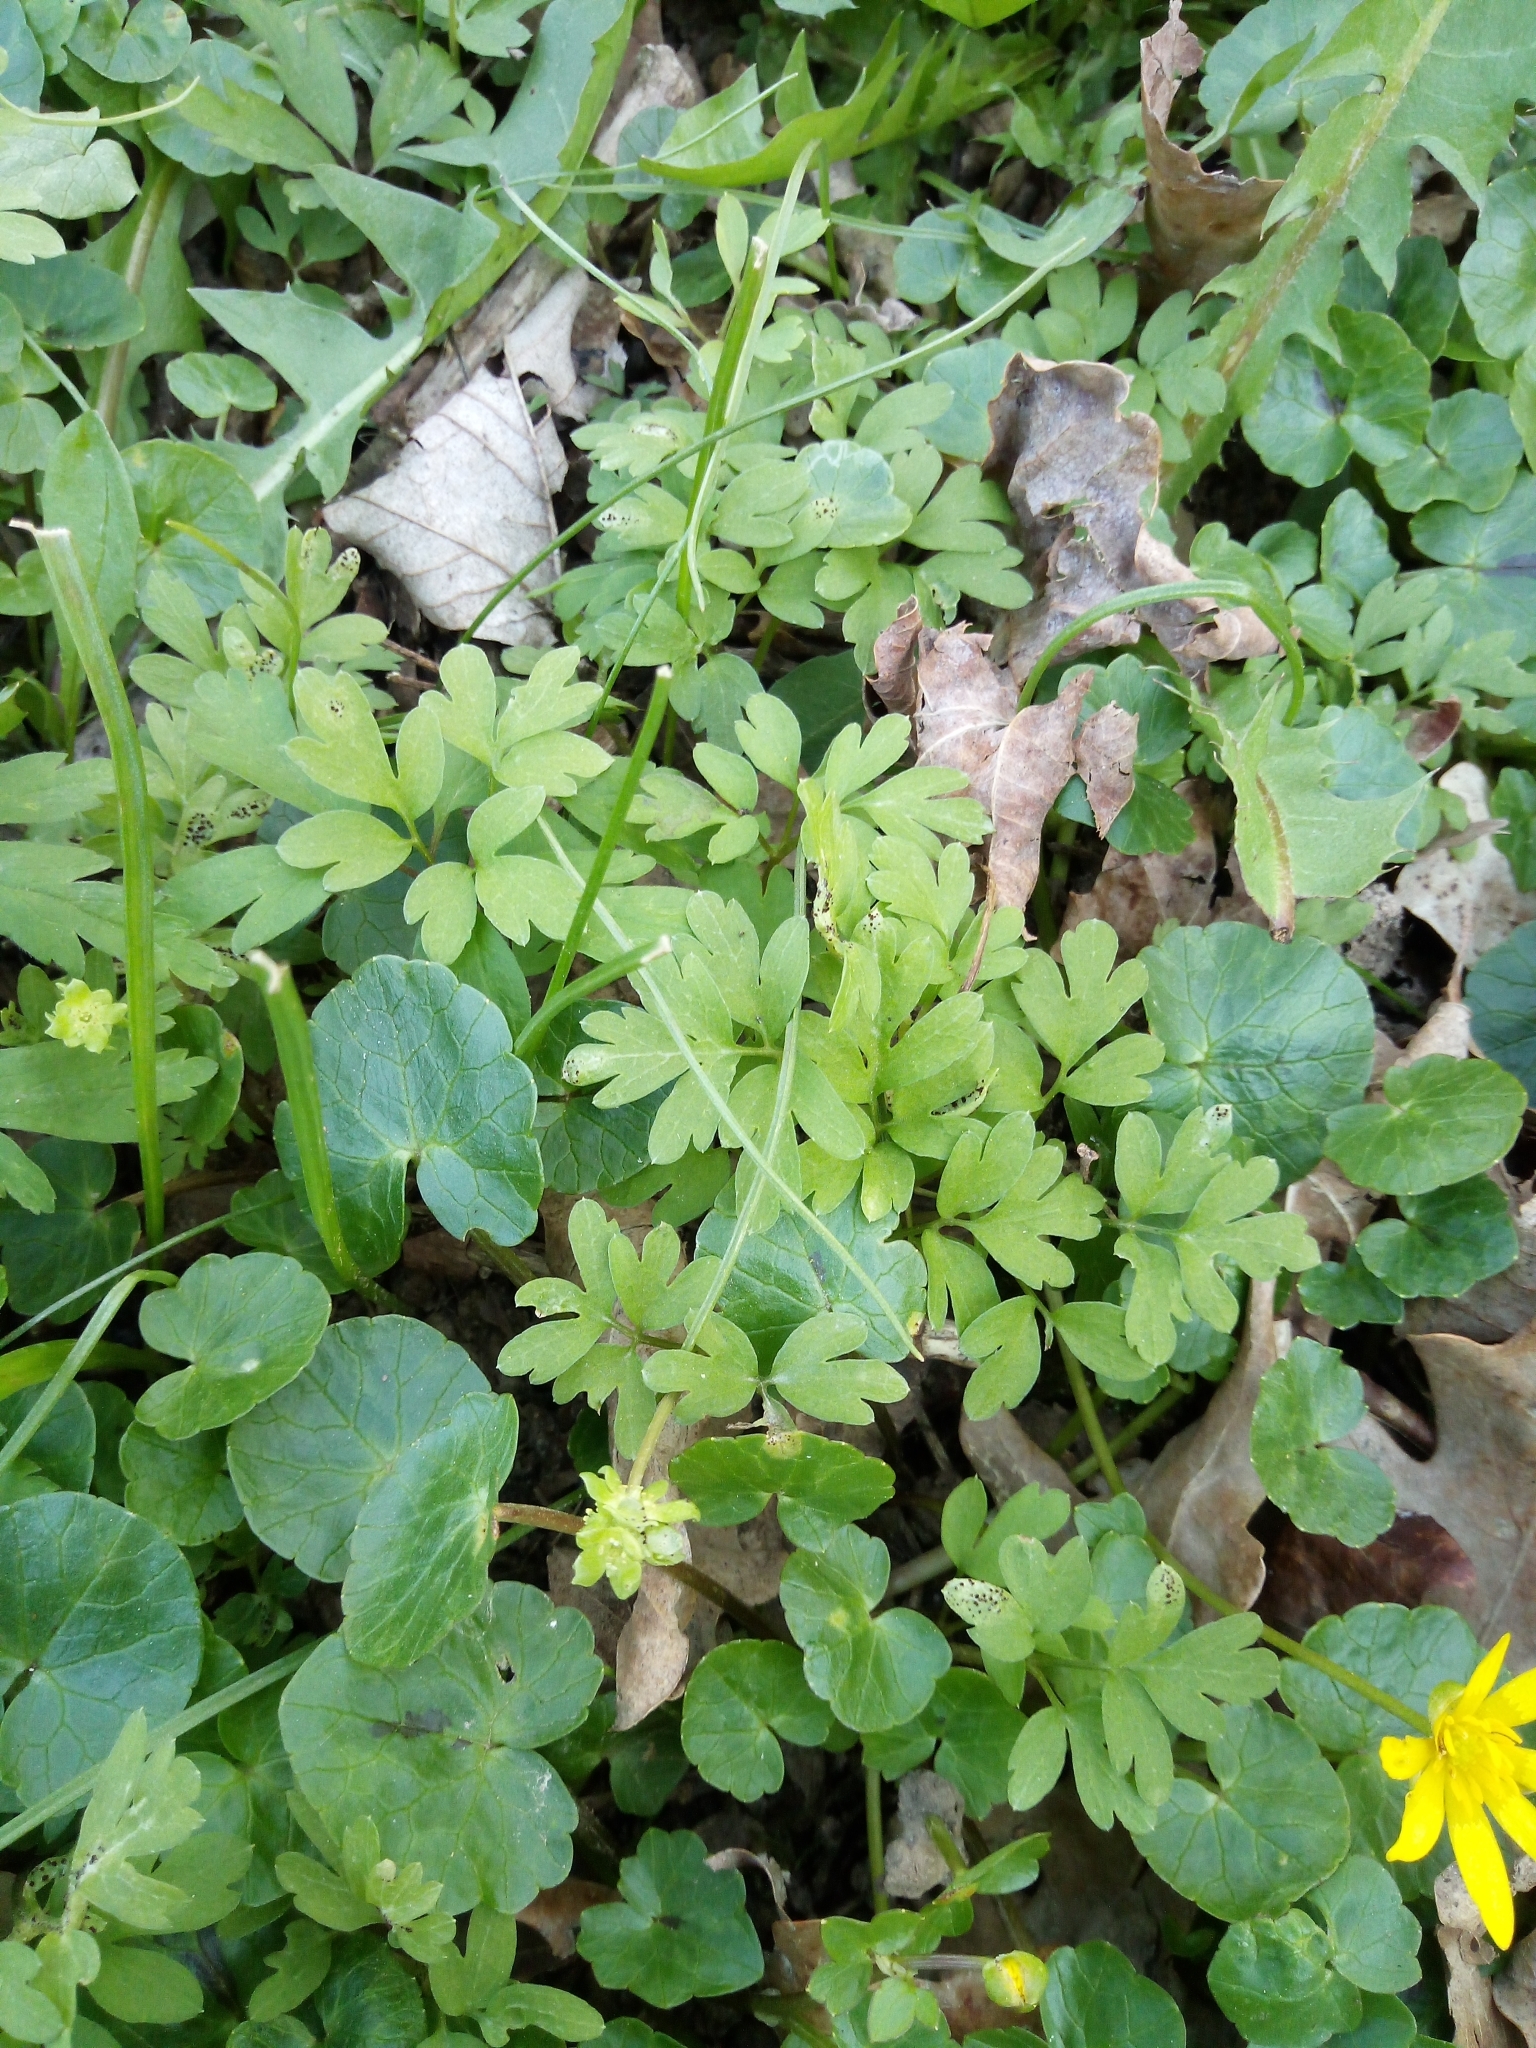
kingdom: Plantae
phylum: Tracheophyta
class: Magnoliopsida
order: Dipsacales
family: Viburnaceae
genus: Adoxa
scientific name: Adoxa moschatellina
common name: Moschatel
